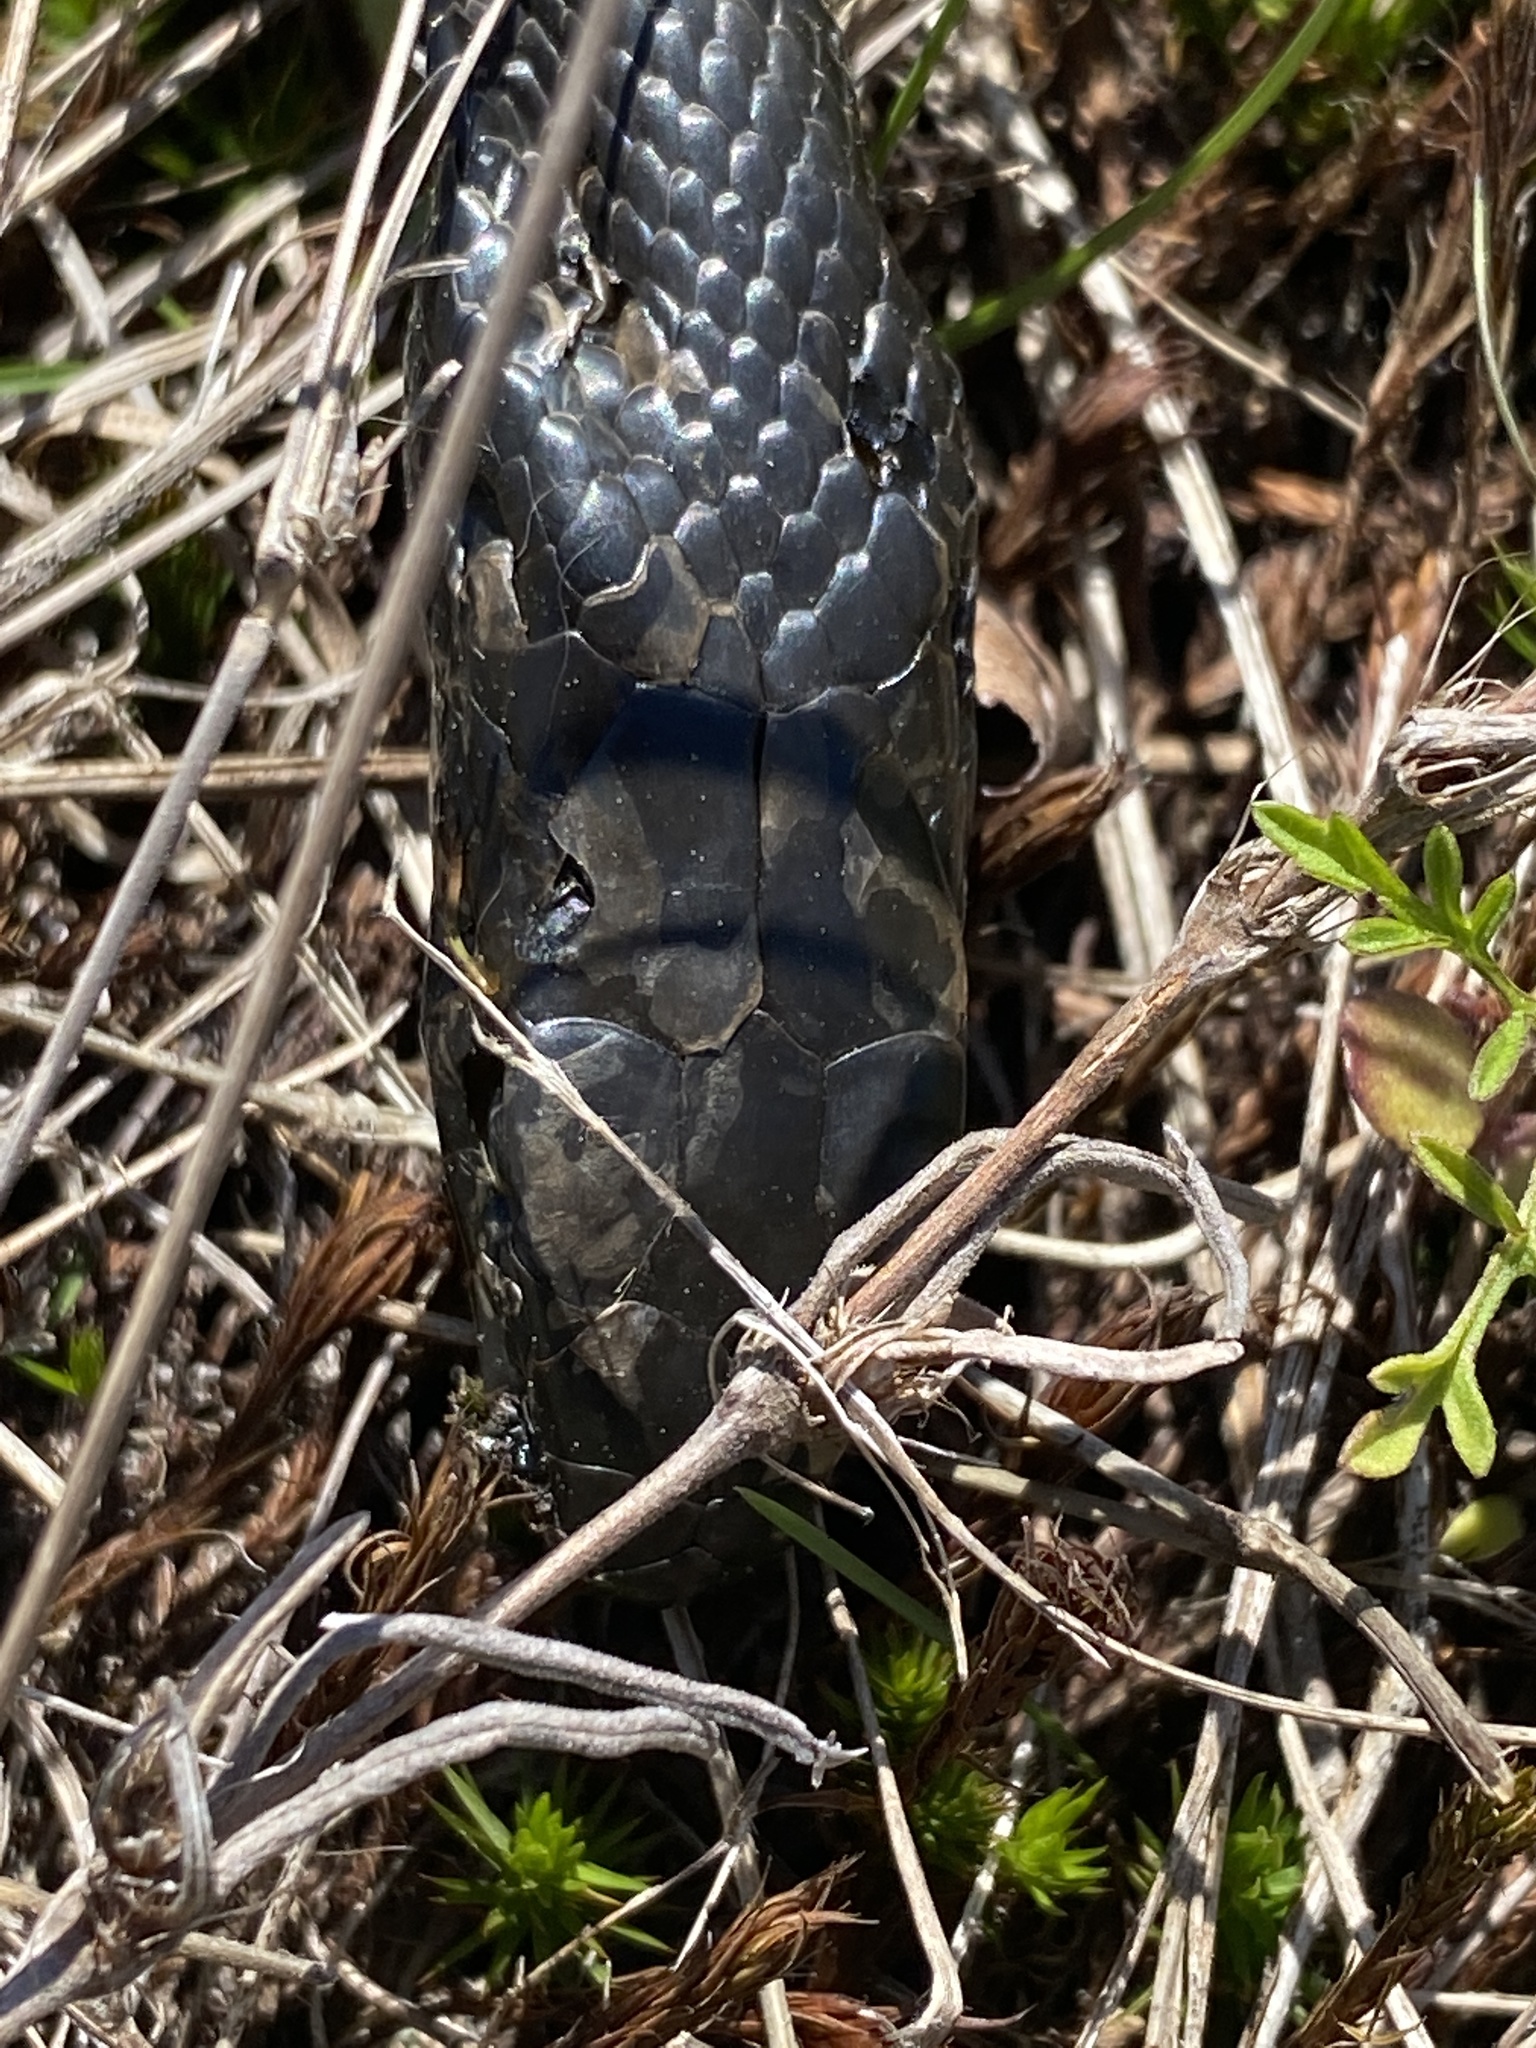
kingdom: Animalia
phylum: Chordata
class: Squamata
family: Colubridae
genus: Coluber
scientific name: Coluber constrictor
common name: Eastern racer
